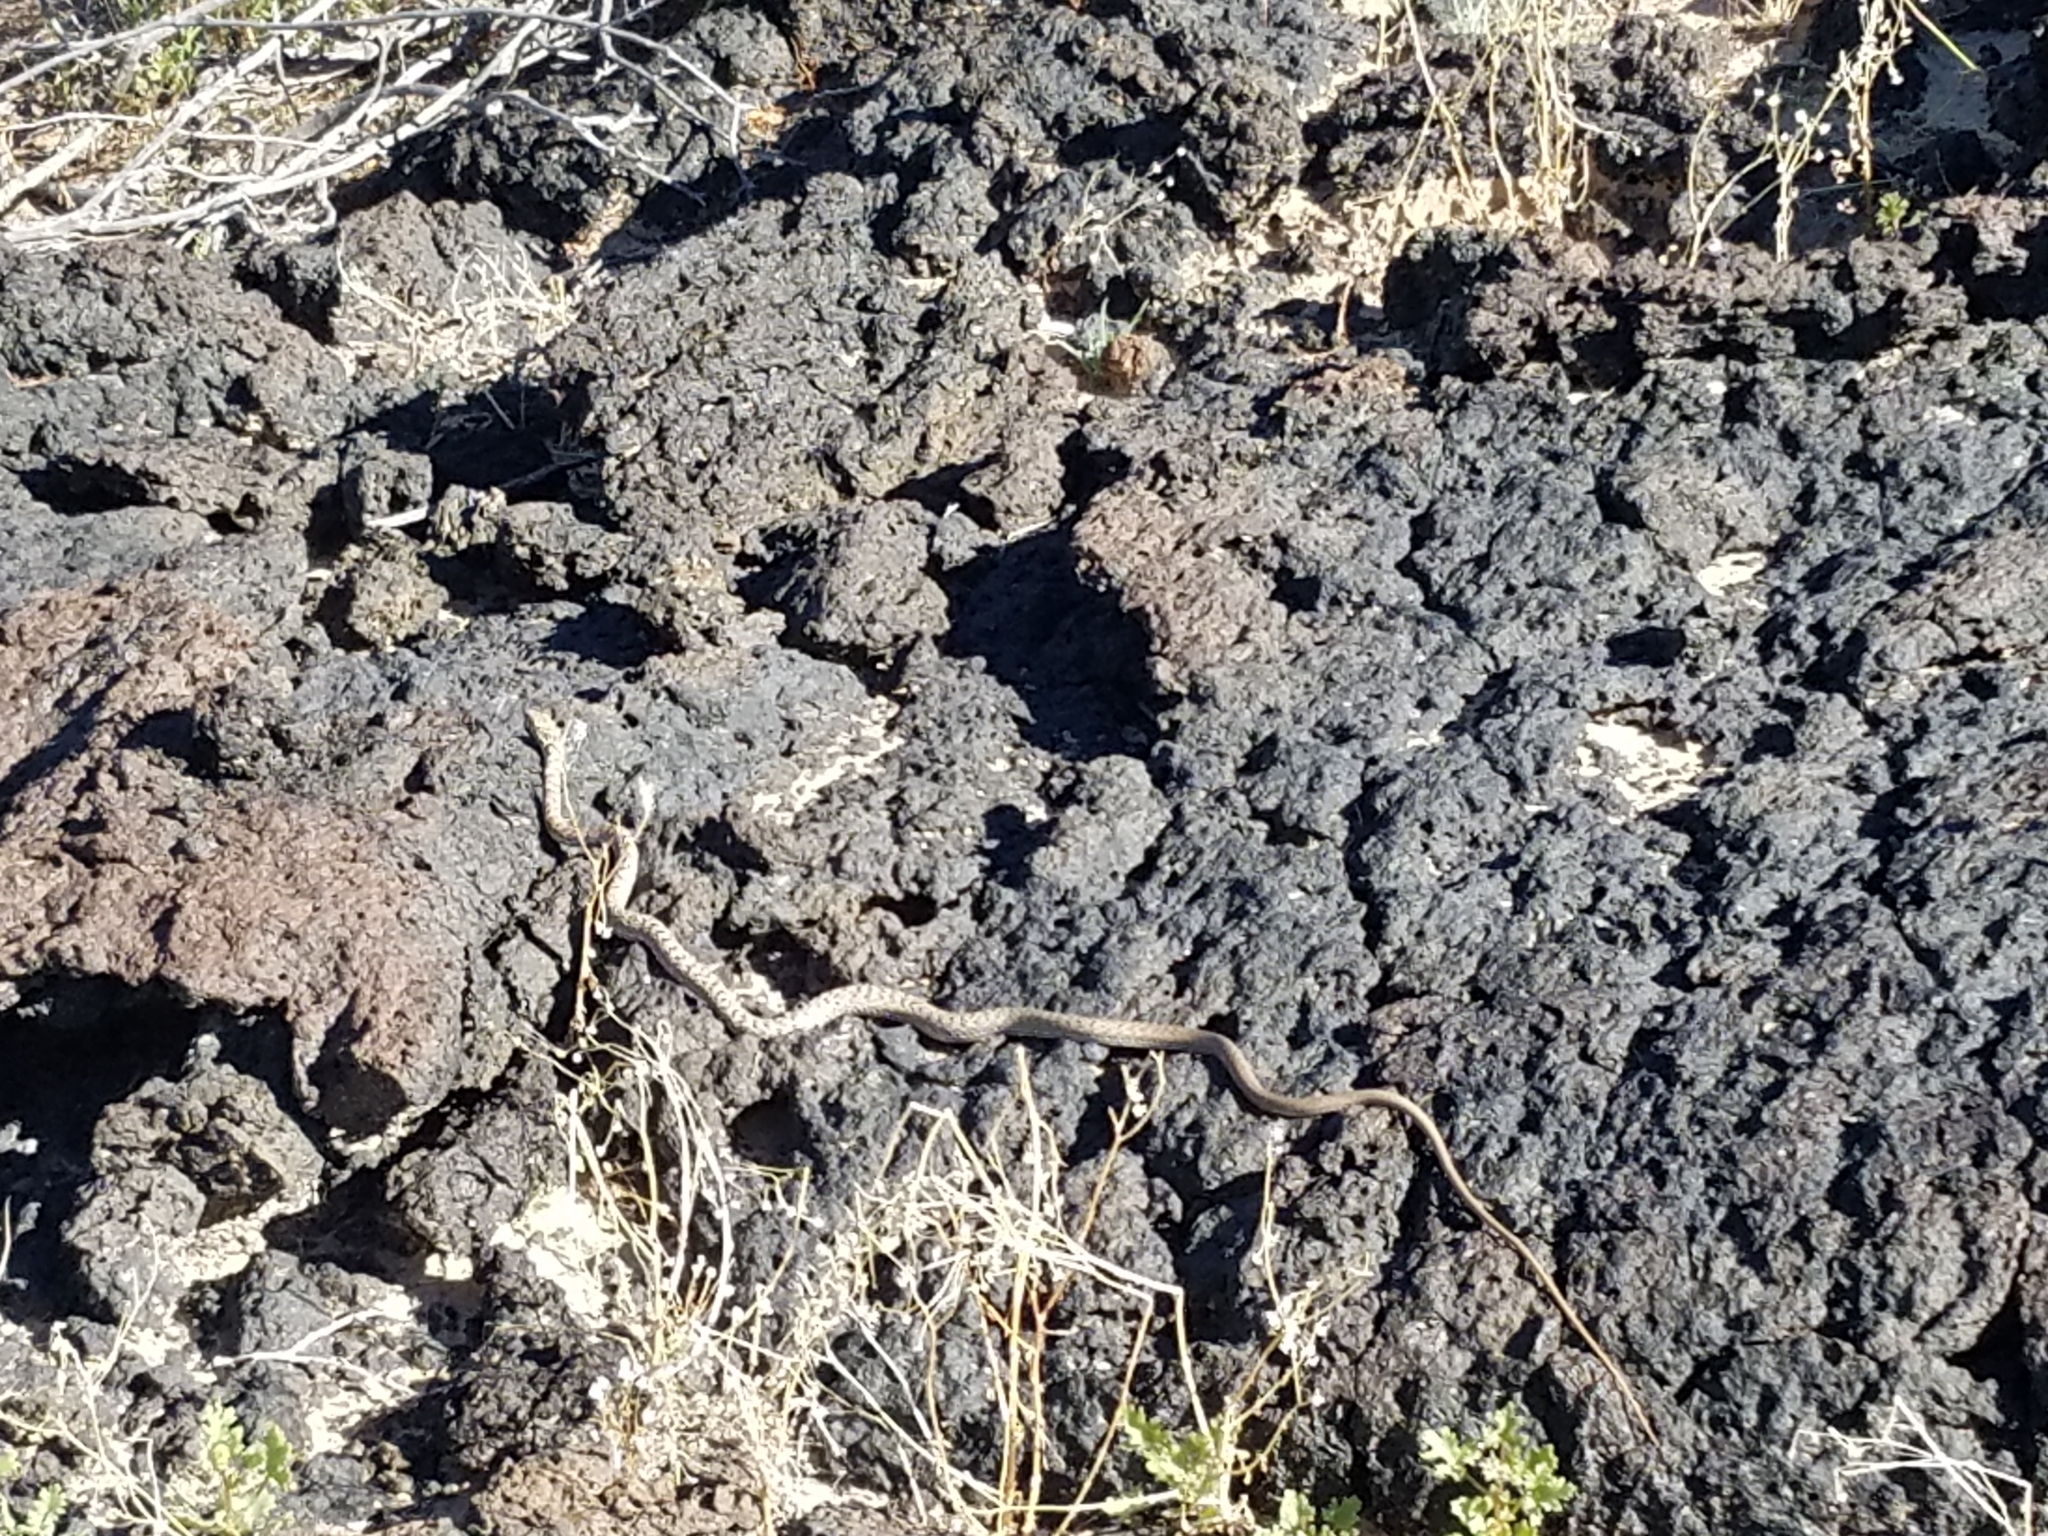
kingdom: Animalia
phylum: Chordata
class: Squamata
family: Colubridae
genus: Masticophis
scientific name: Masticophis flagellum
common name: Coachwhip
